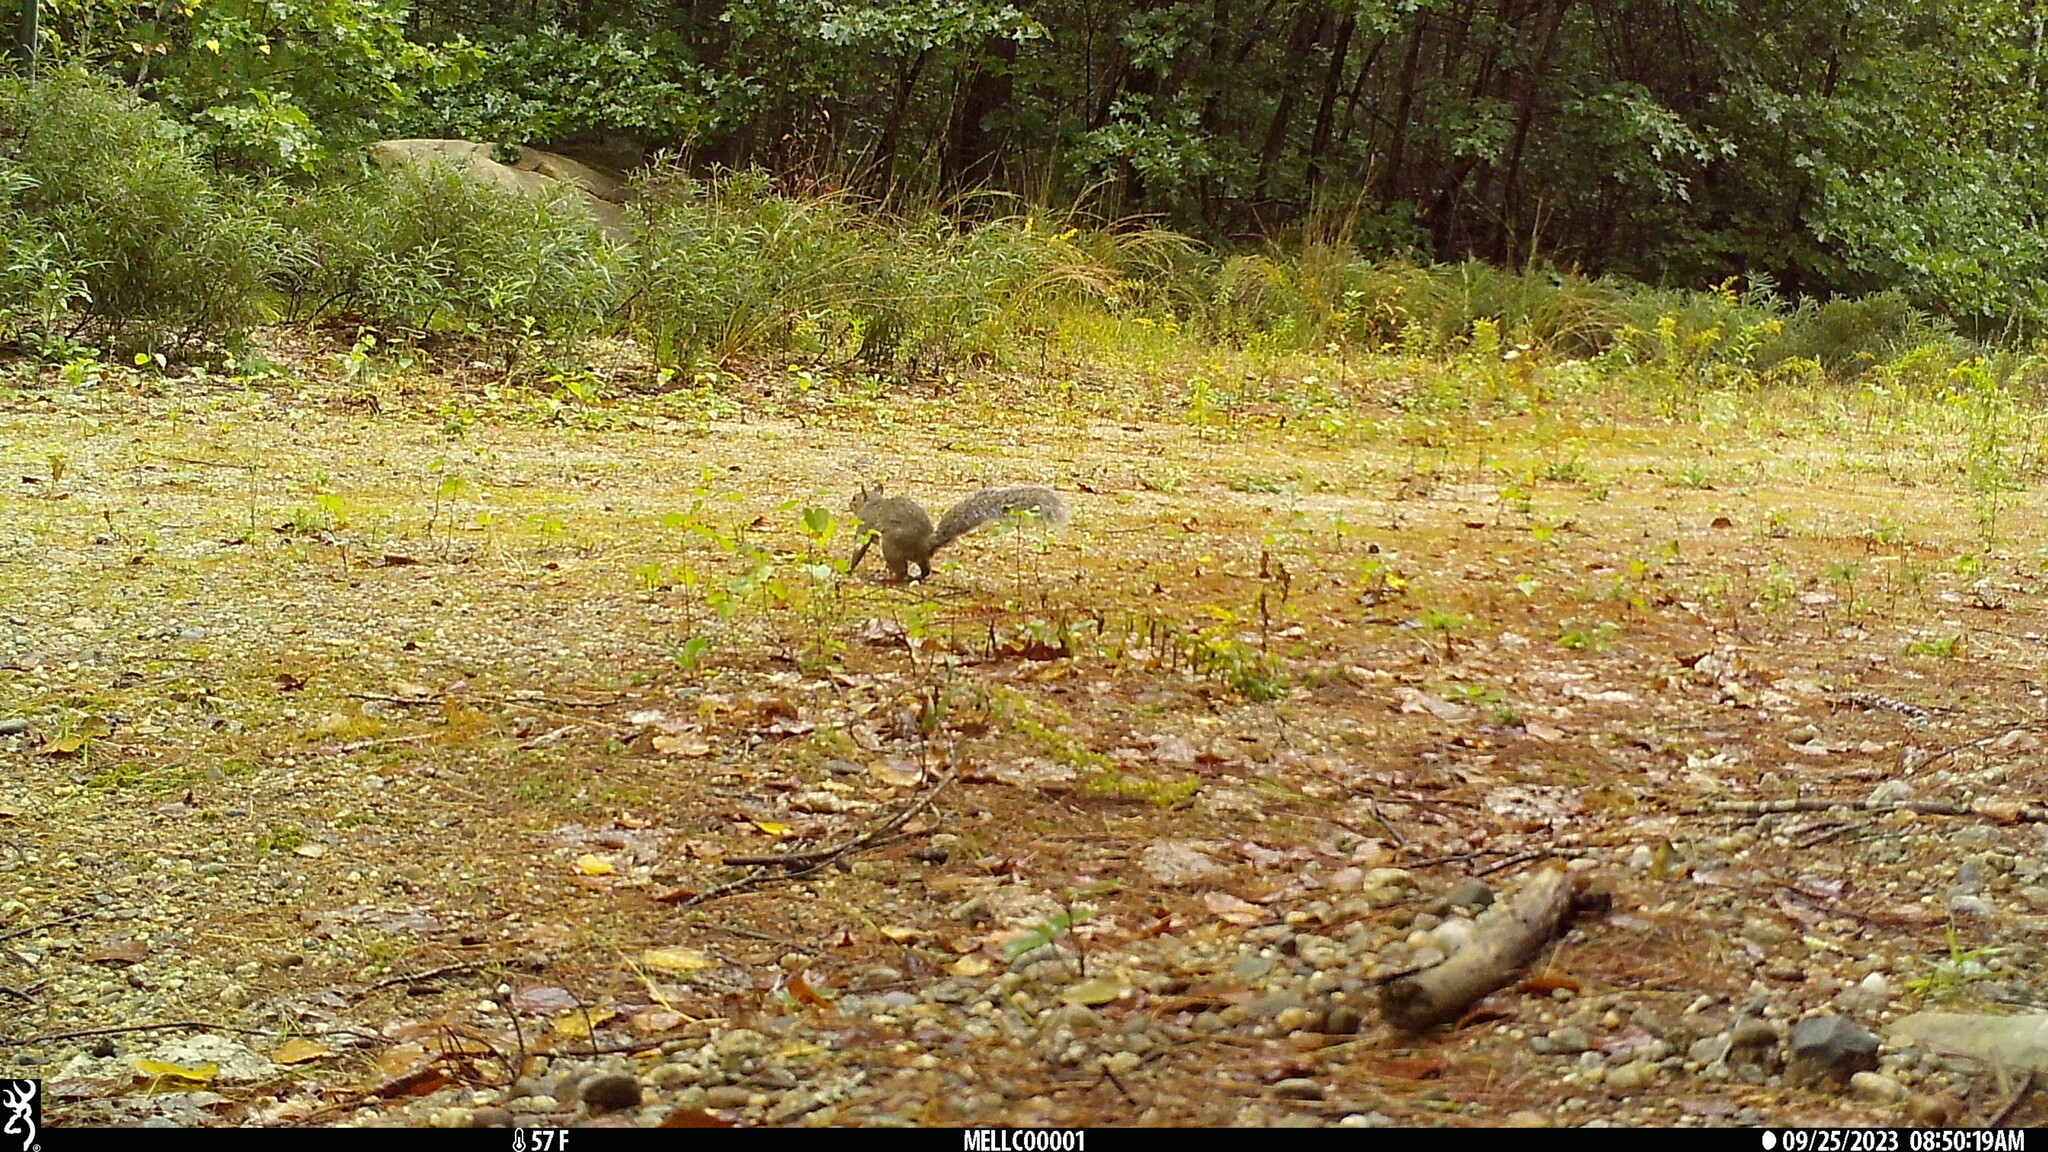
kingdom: Animalia
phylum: Chordata
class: Mammalia
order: Rodentia
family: Sciuridae
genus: Sciurus
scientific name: Sciurus carolinensis
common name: Eastern gray squirrel
